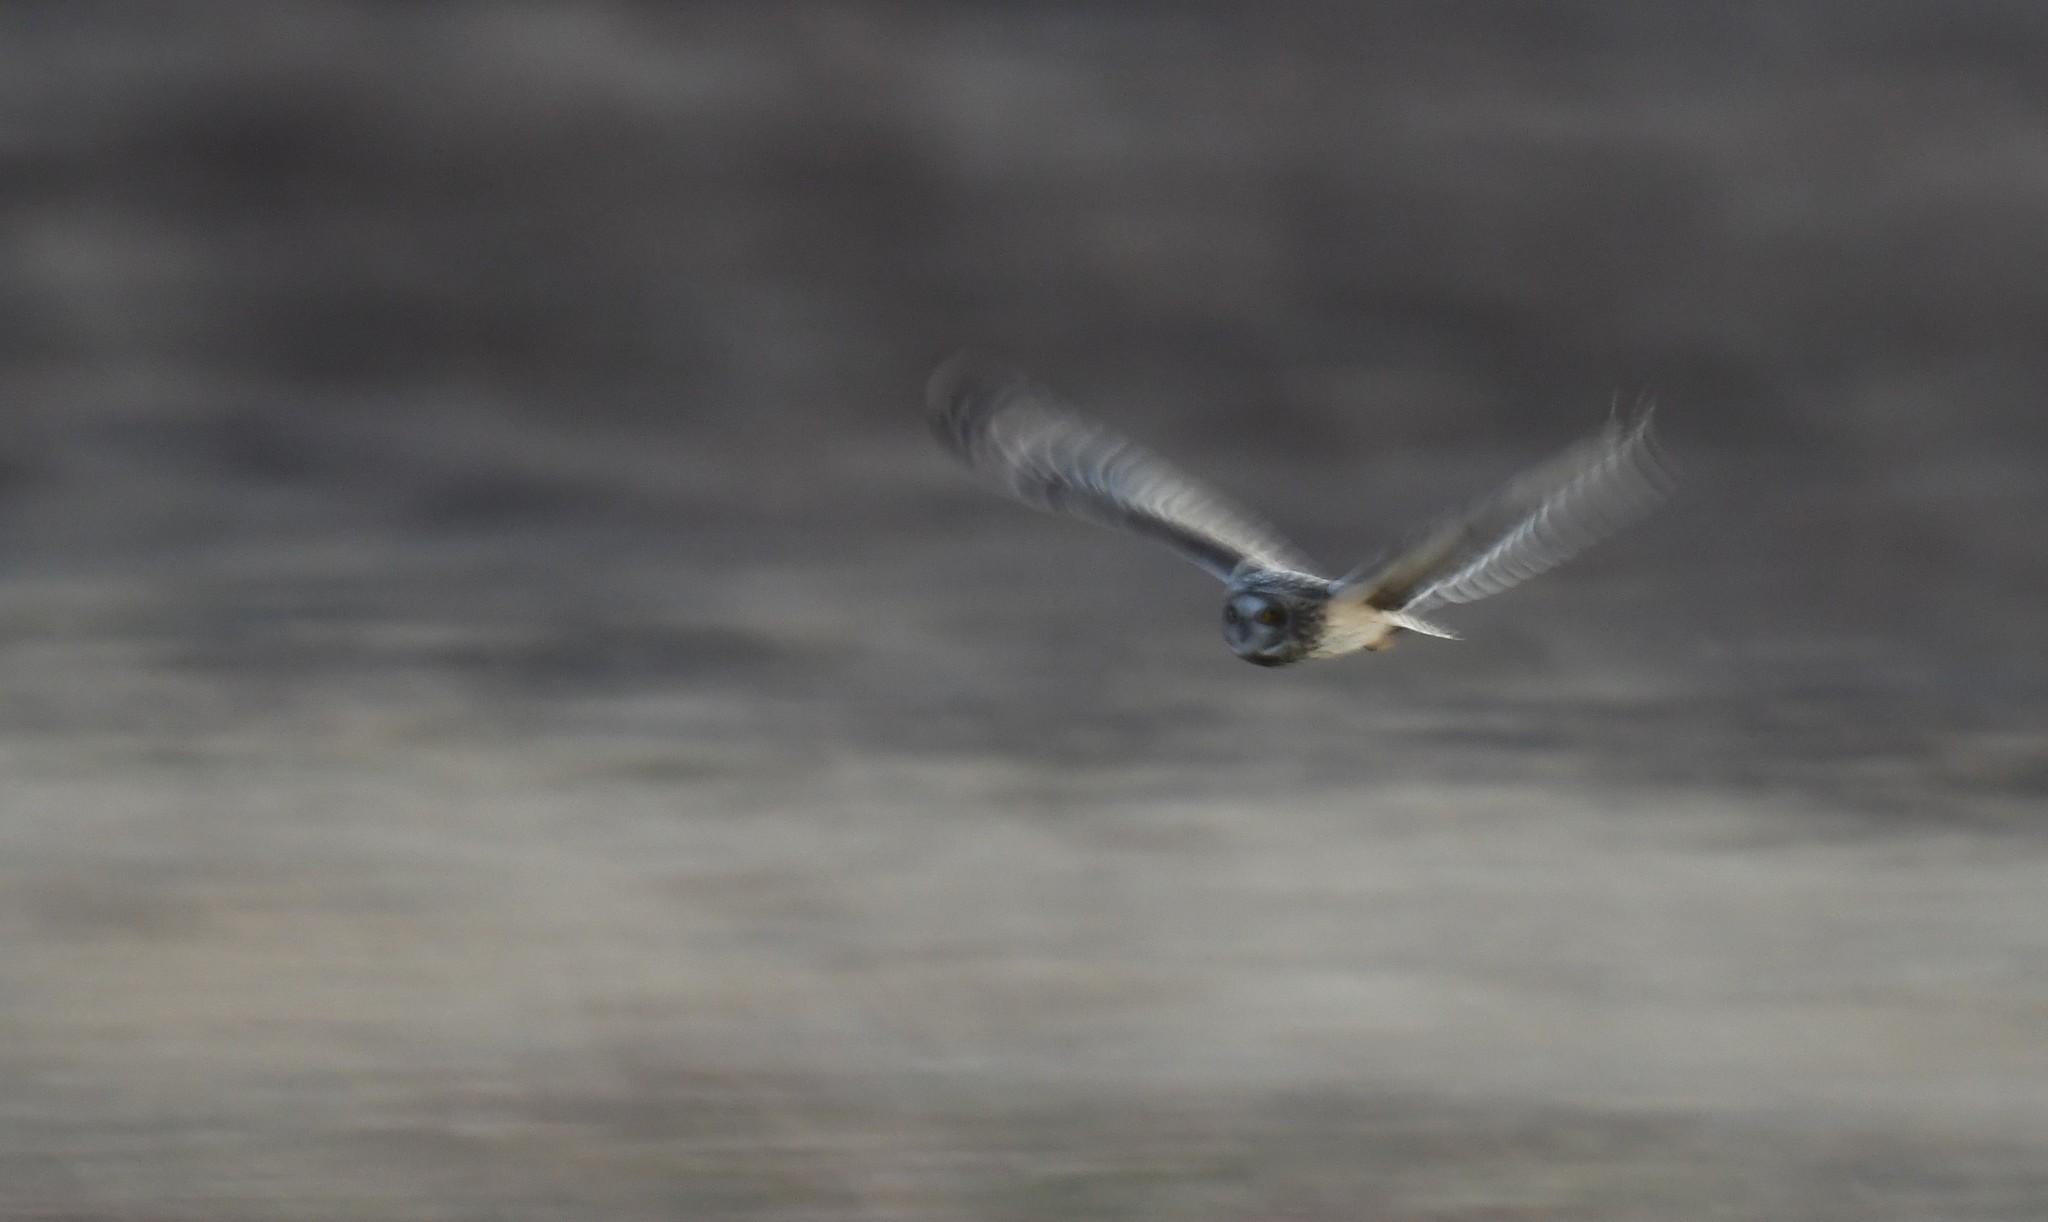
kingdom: Animalia
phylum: Chordata
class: Aves
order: Strigiformes
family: Strigidae
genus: Asio
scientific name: Asio flammeus
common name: Short-eared owl
